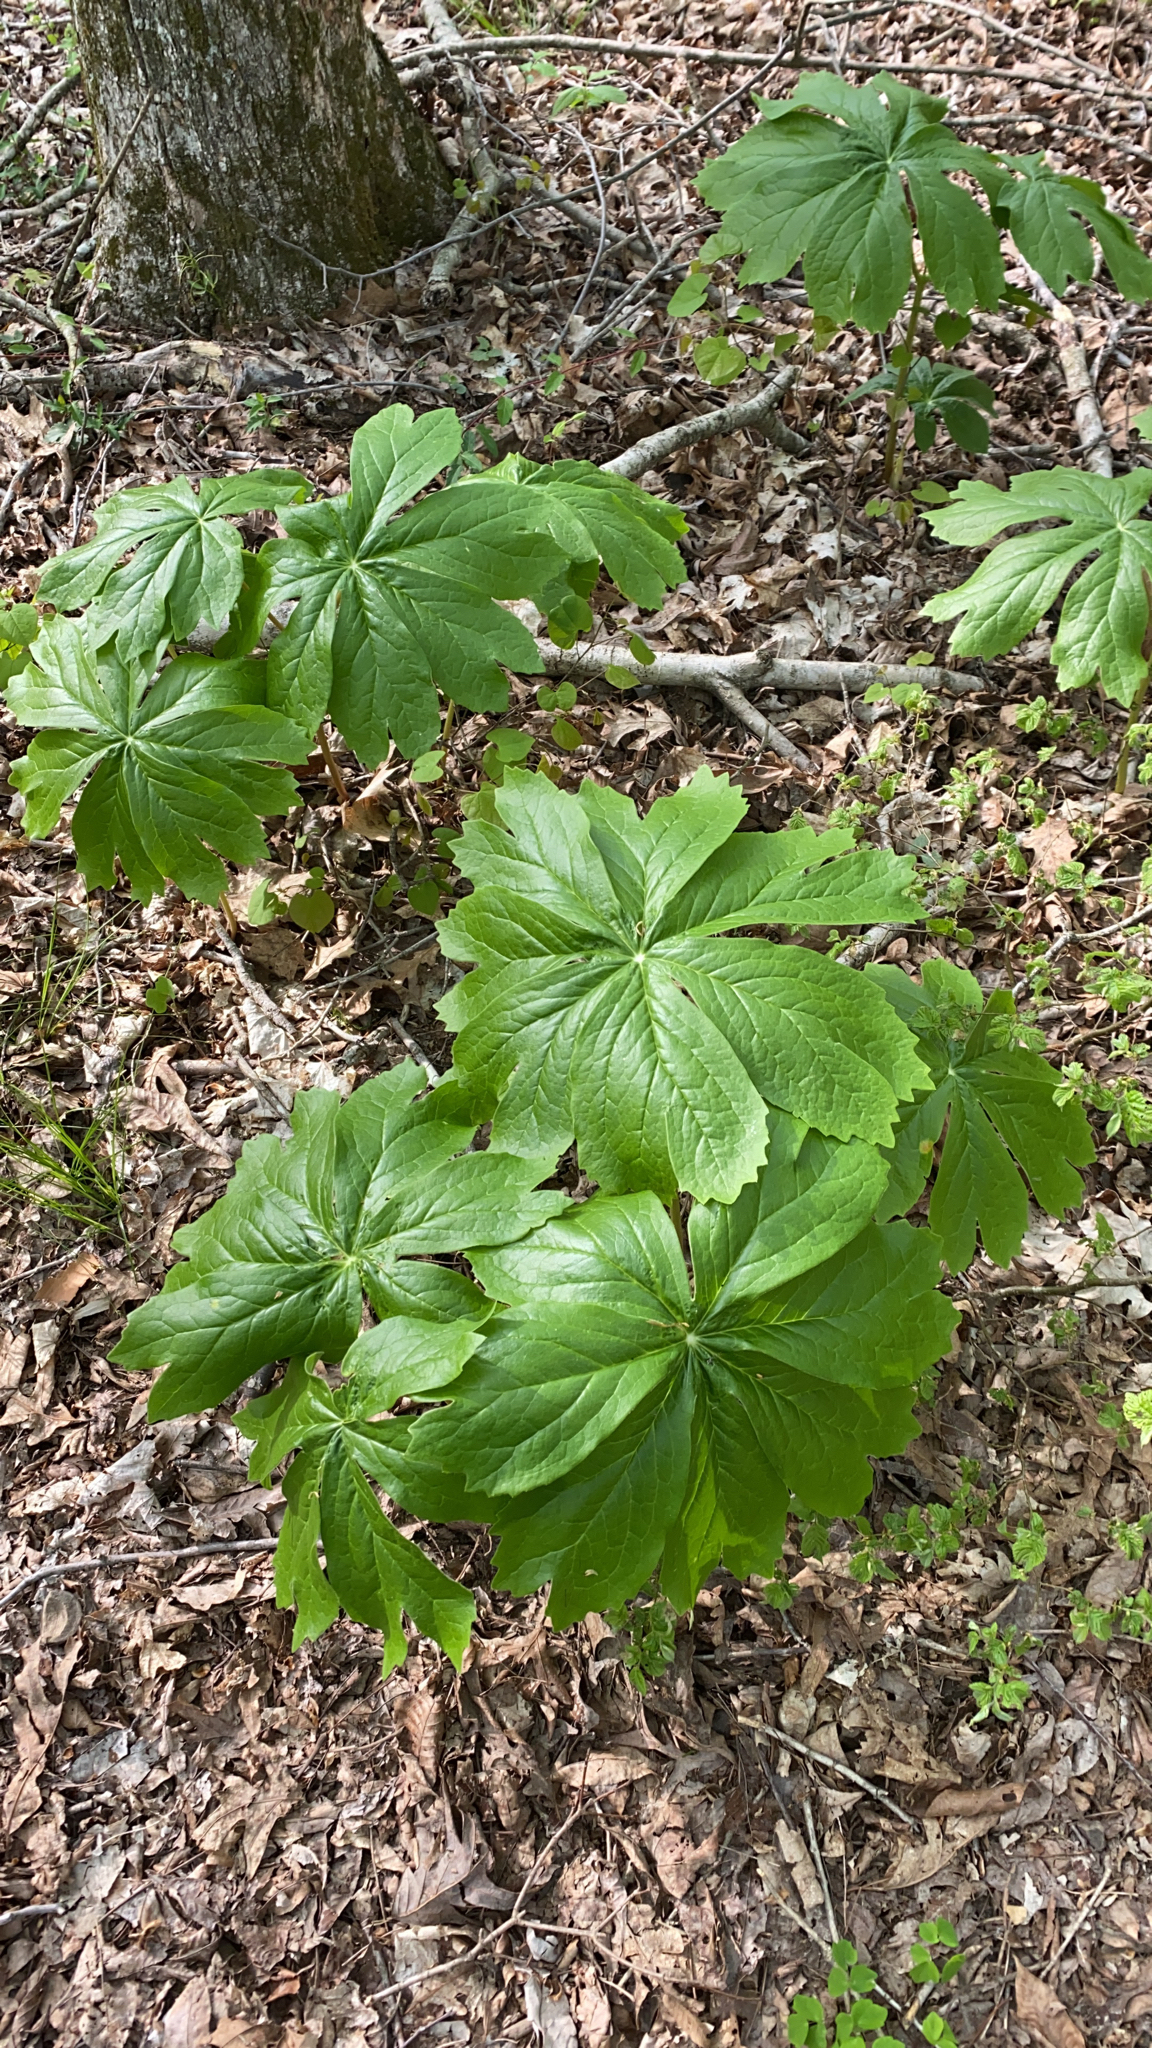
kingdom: Plantae
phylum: Tracheophyta
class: Magnoliopsida
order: Ranunculales
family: Berberidaceae
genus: Podophyllum
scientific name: Podophyllum peltatum
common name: Wild mandrake
